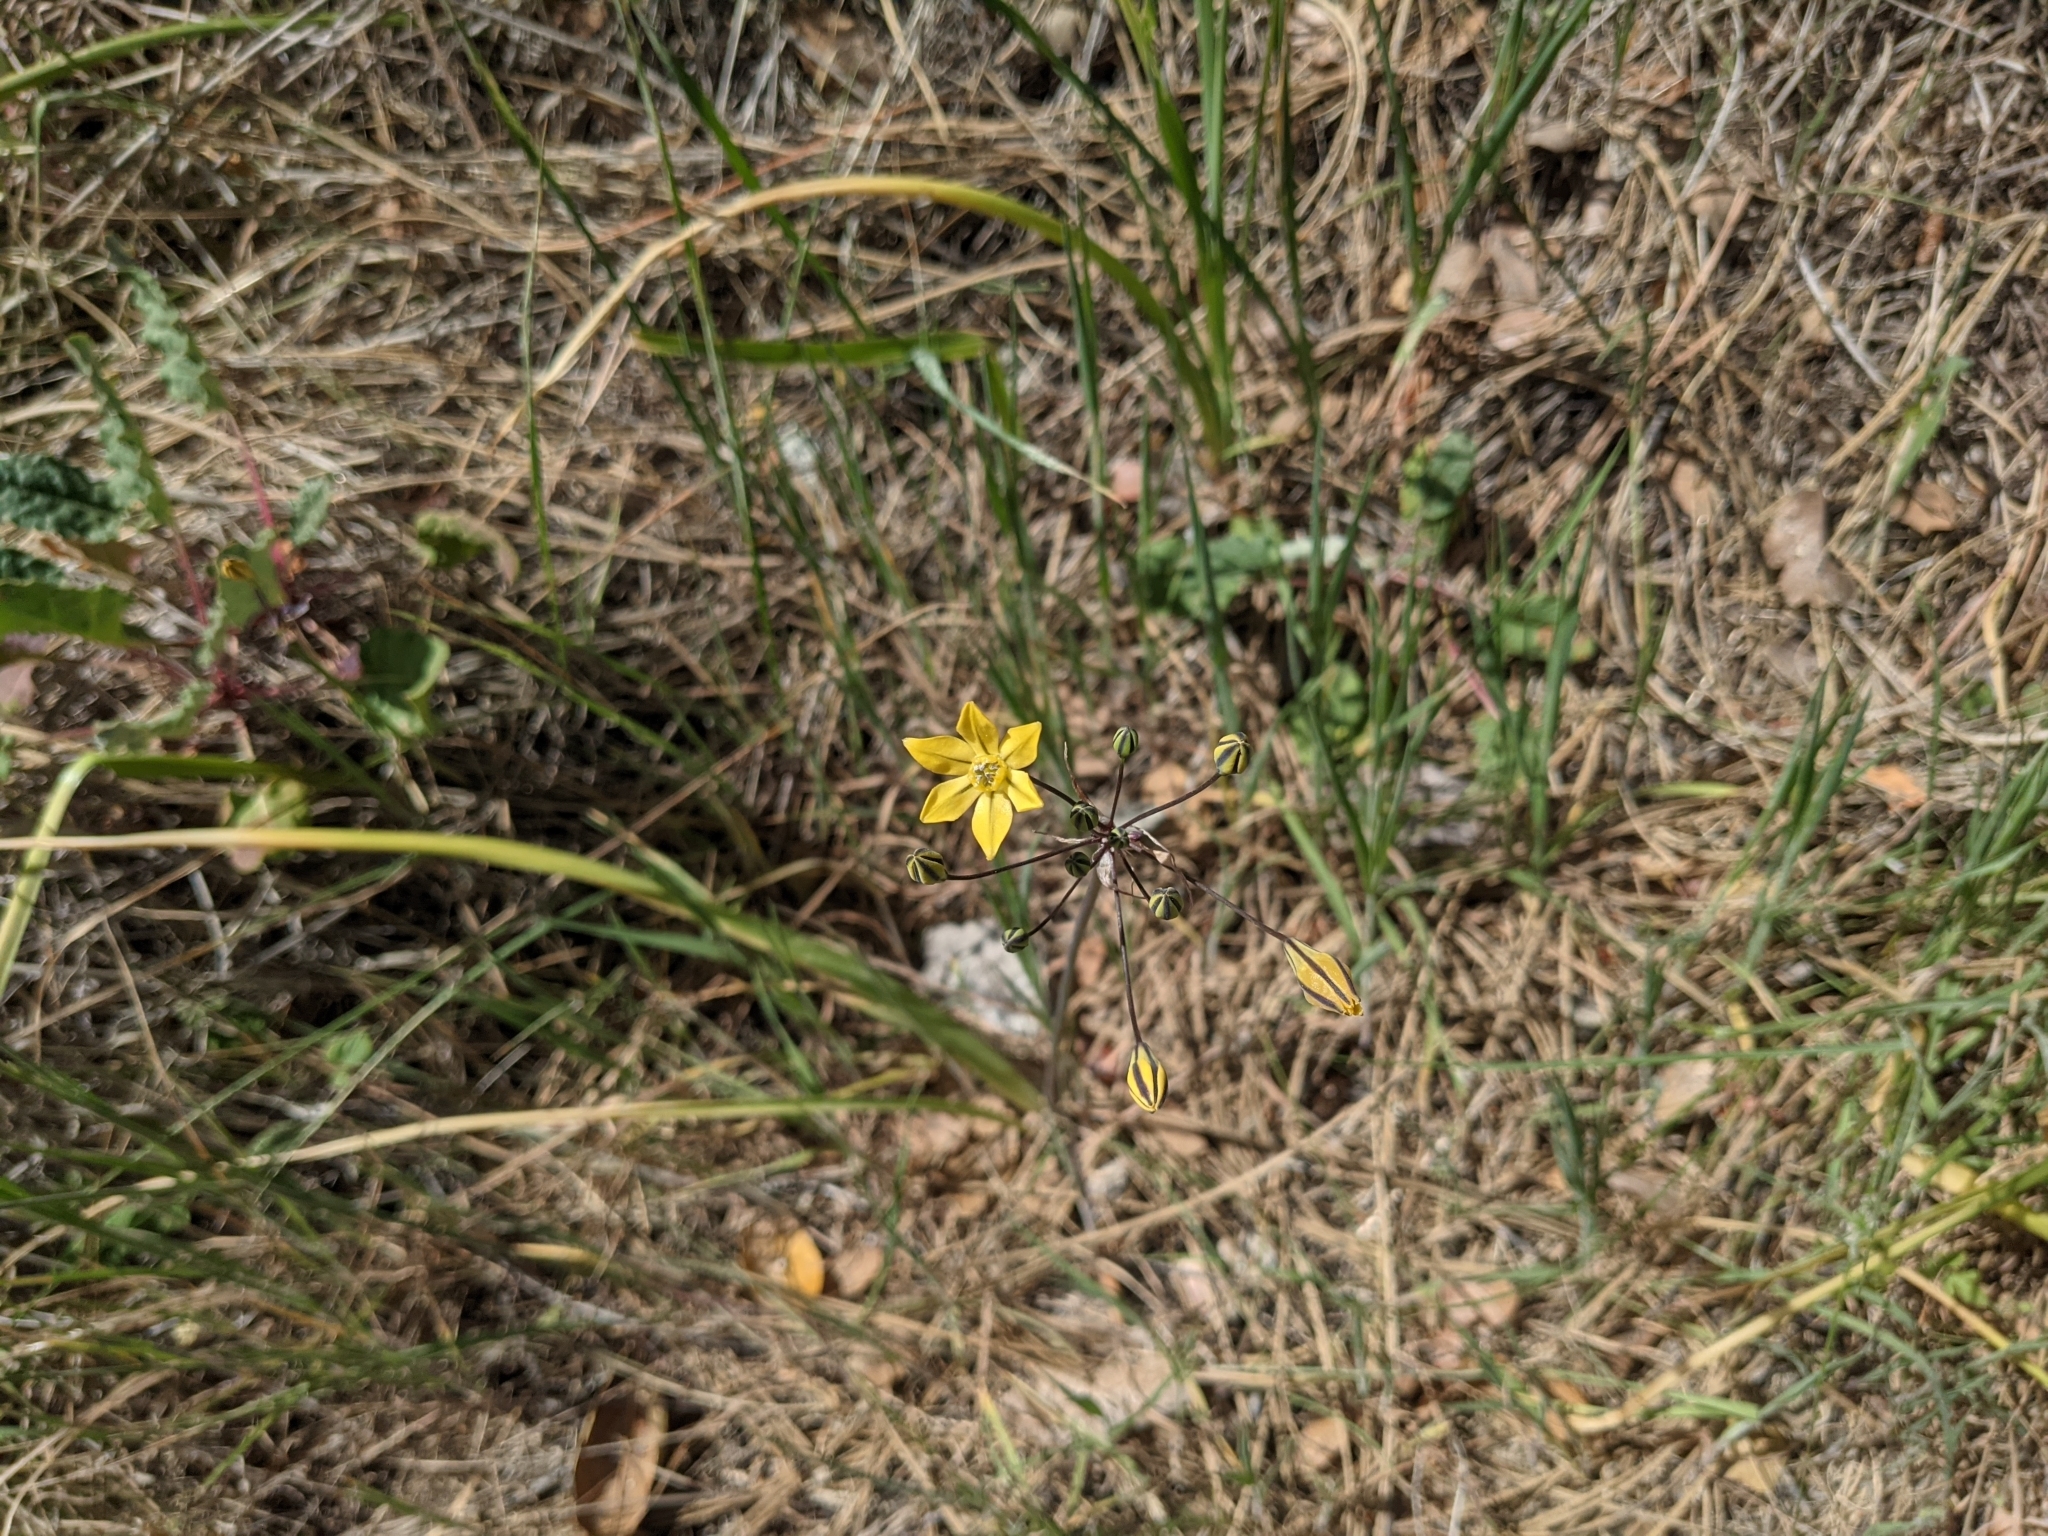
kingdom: Plantae
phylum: Tracheophyta
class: Liliopsida
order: Asparagales
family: Asparagaceae
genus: Triteleia
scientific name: Triteleia lugens
